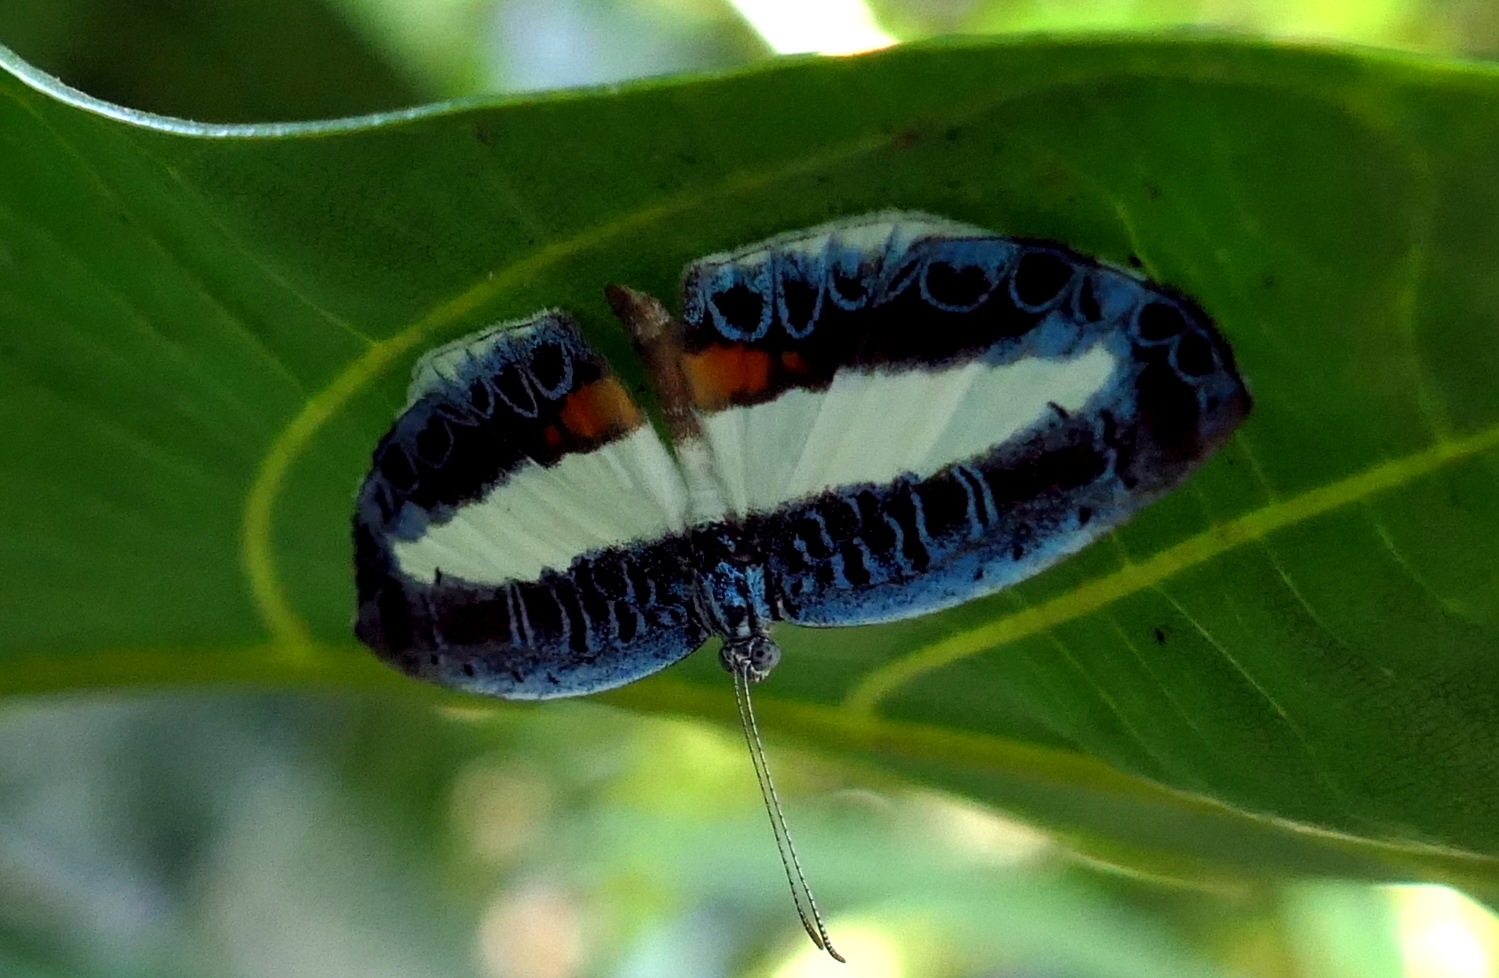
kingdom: Animalia
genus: Nymphidium
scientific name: Nymphidium mantus
